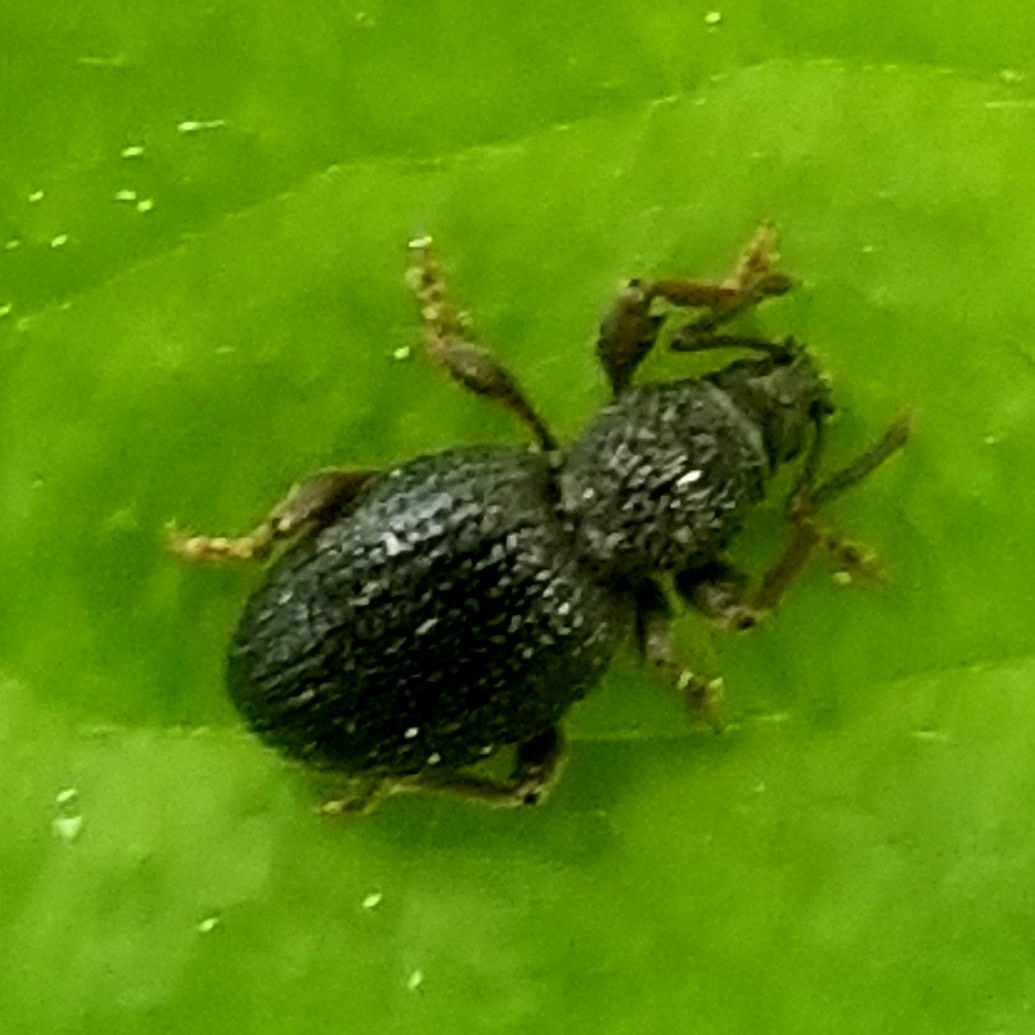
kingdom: Animalia
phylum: Arthropoda
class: Insecta
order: Coleoptera
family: Curculionidae
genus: Otiorhynchus
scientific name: Otiorhynchus ovatus
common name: Strawberry root weevil
